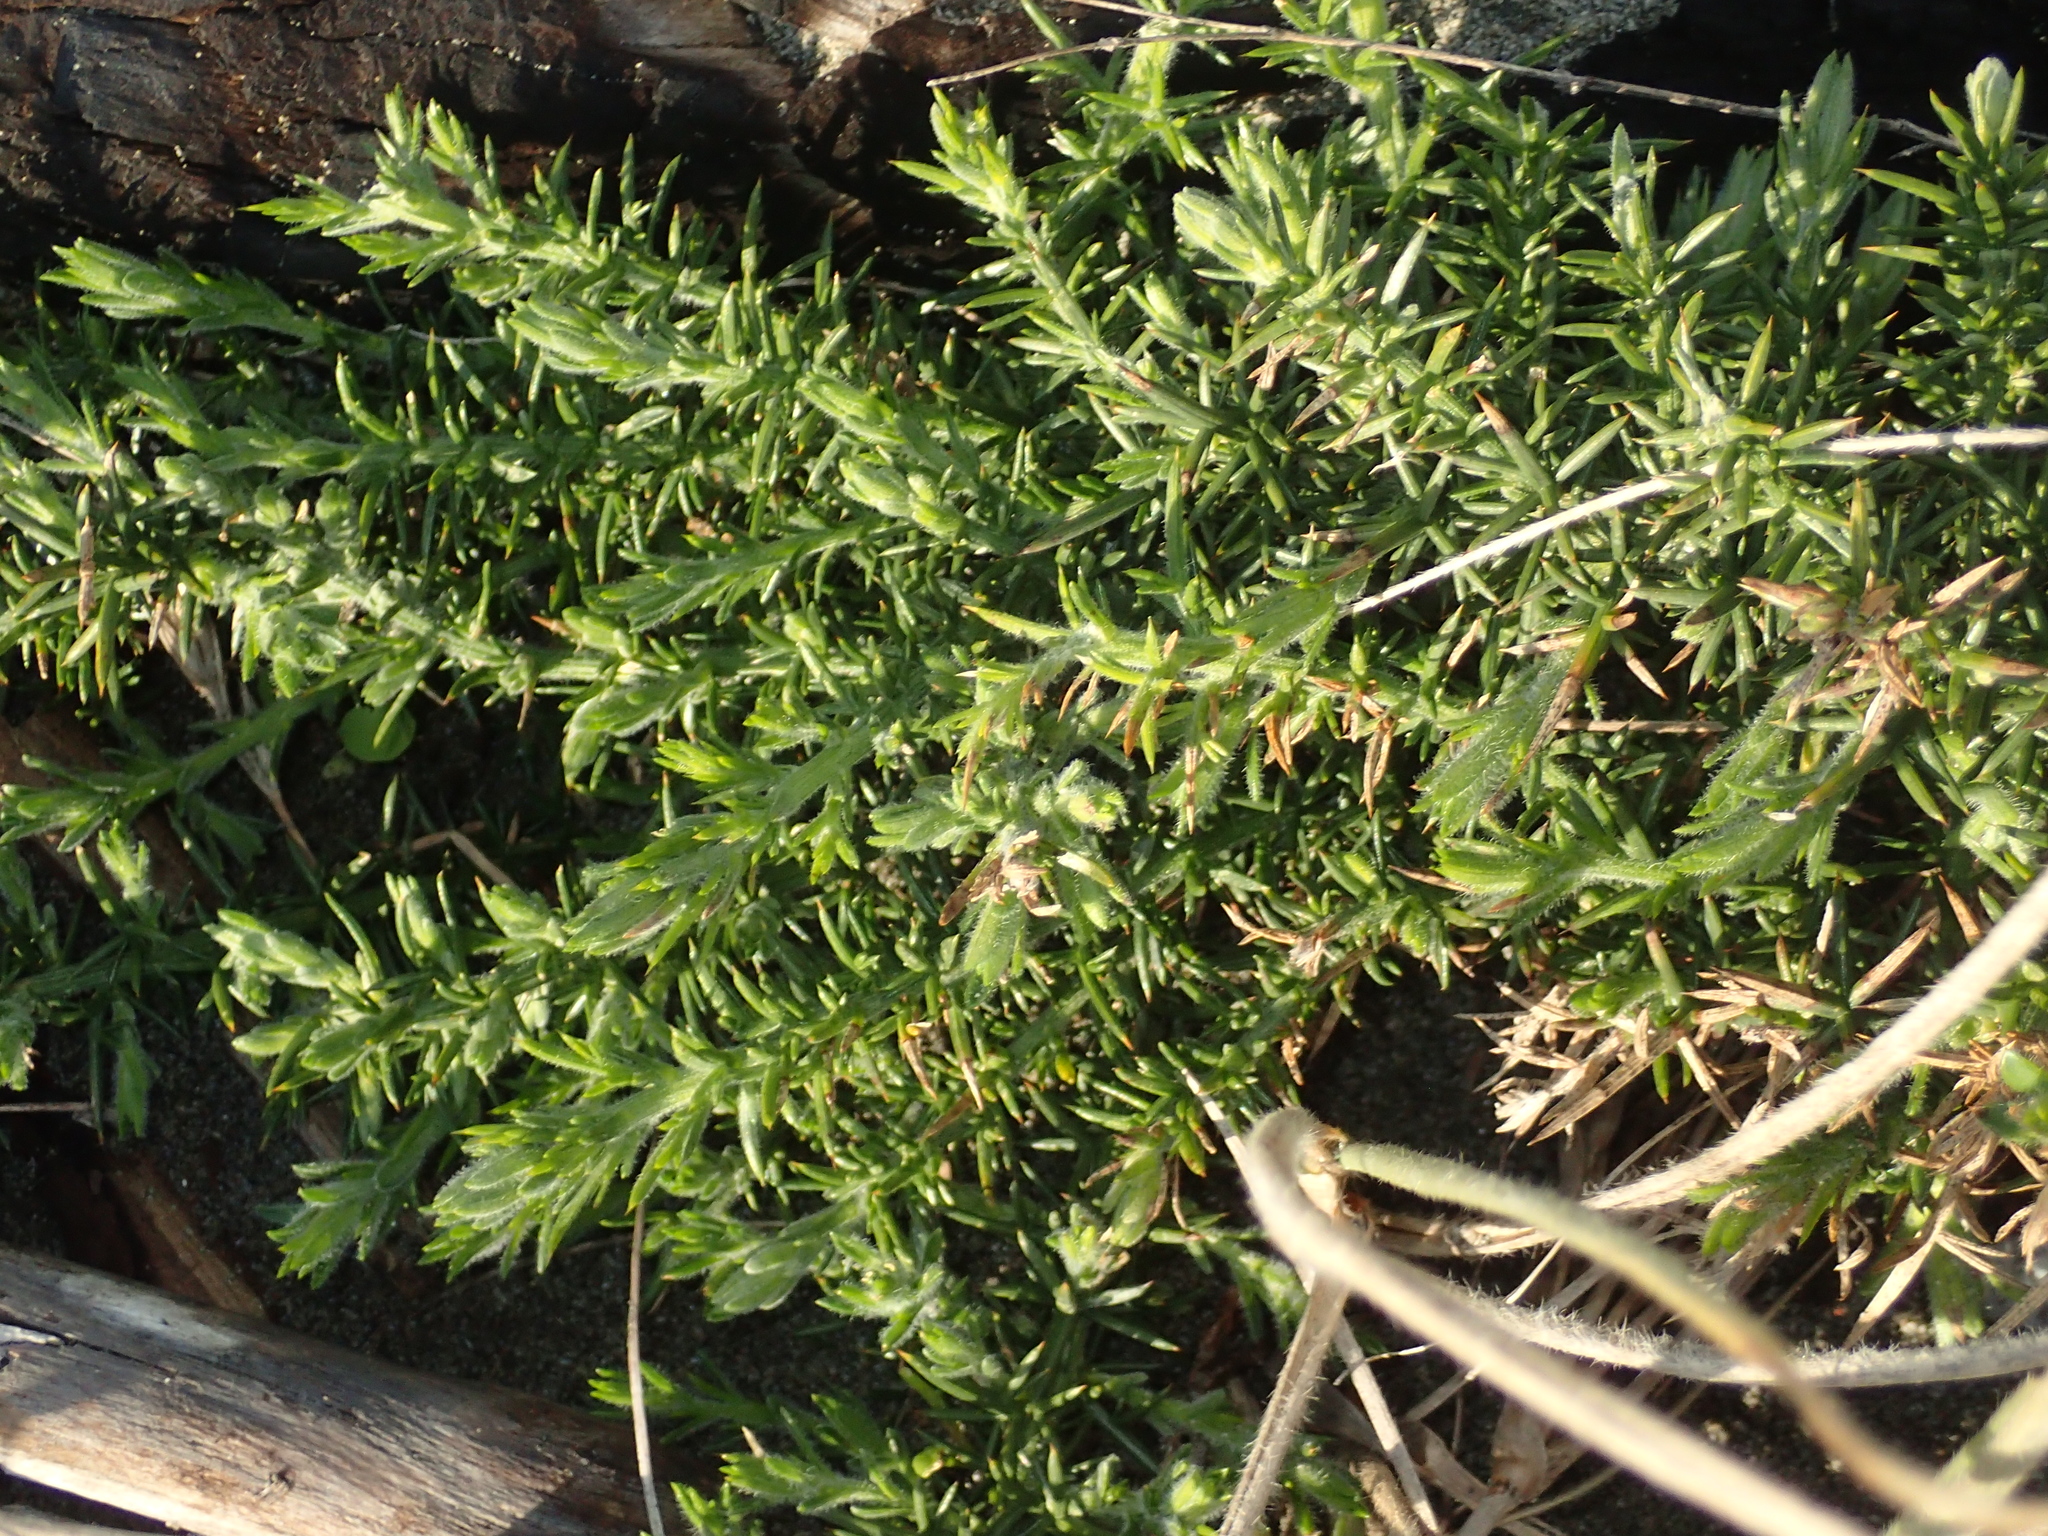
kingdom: Plantae
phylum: Tracheophyta
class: Magnoliopsida
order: Fabales
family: Fabaceae
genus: Ulex
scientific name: Ulex europaeus
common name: Common gorse
